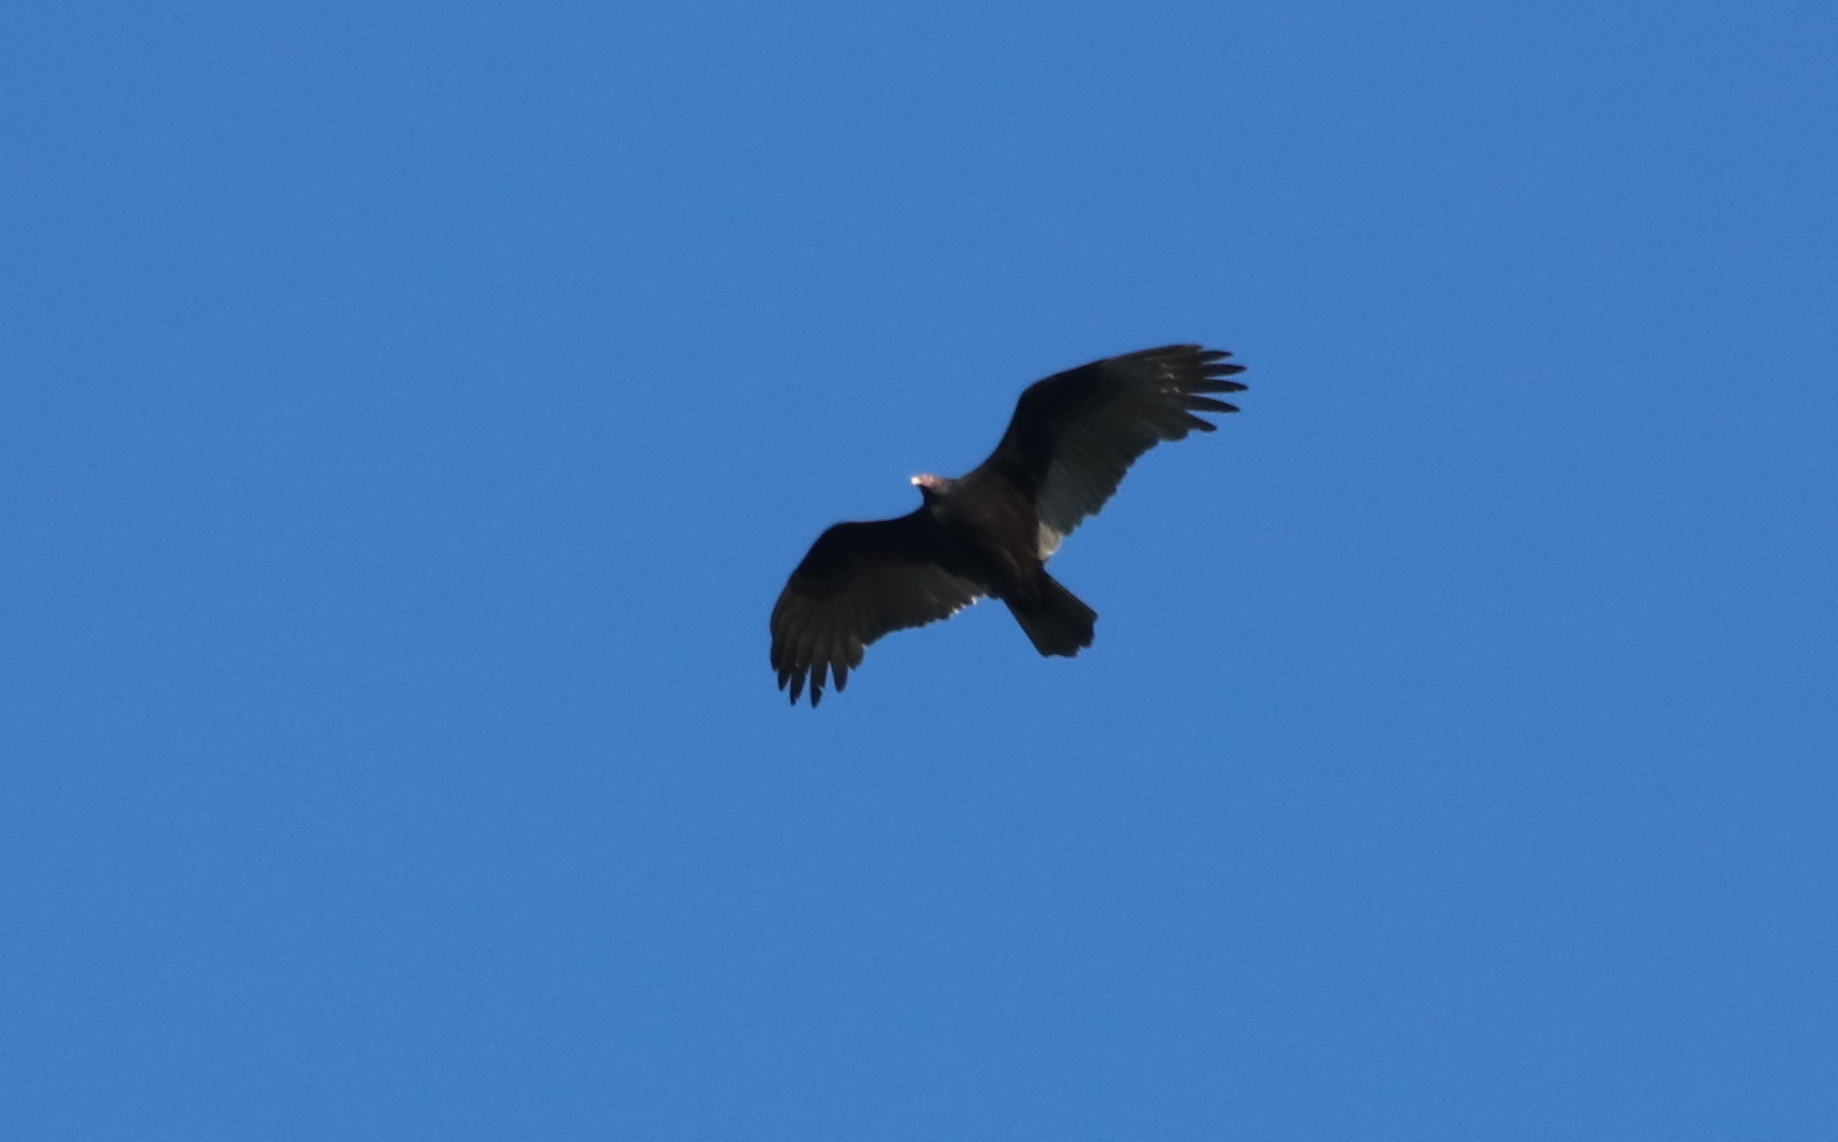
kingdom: Animalia
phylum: Chordata
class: Aves
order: Accipitriformes
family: Cathartidae
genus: Cathartes
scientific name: Cathartes aura
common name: Turkey vulture
